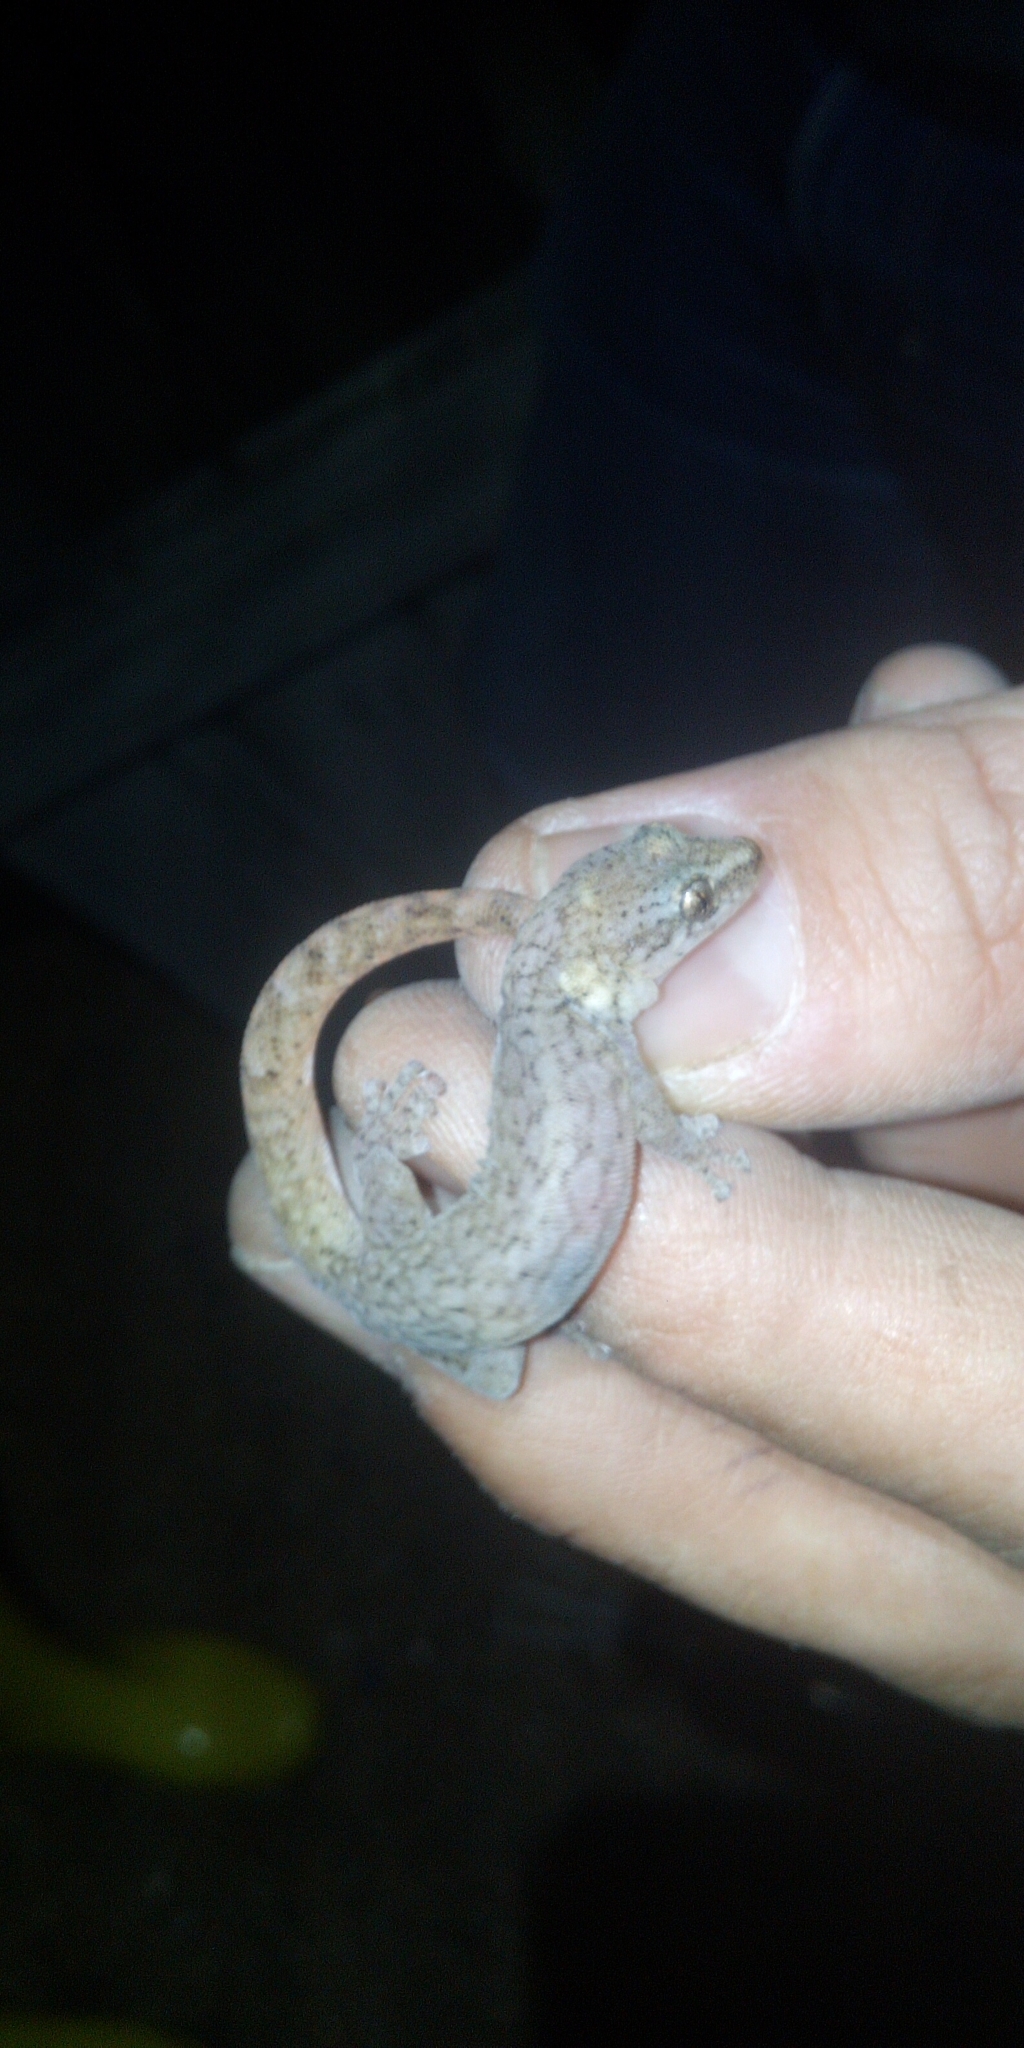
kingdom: Animalia
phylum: Chordata
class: Squamata
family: Gekkonidae
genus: Afrogecko
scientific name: Afrogecko porphyreus
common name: Marbled leaf-toed gecko
